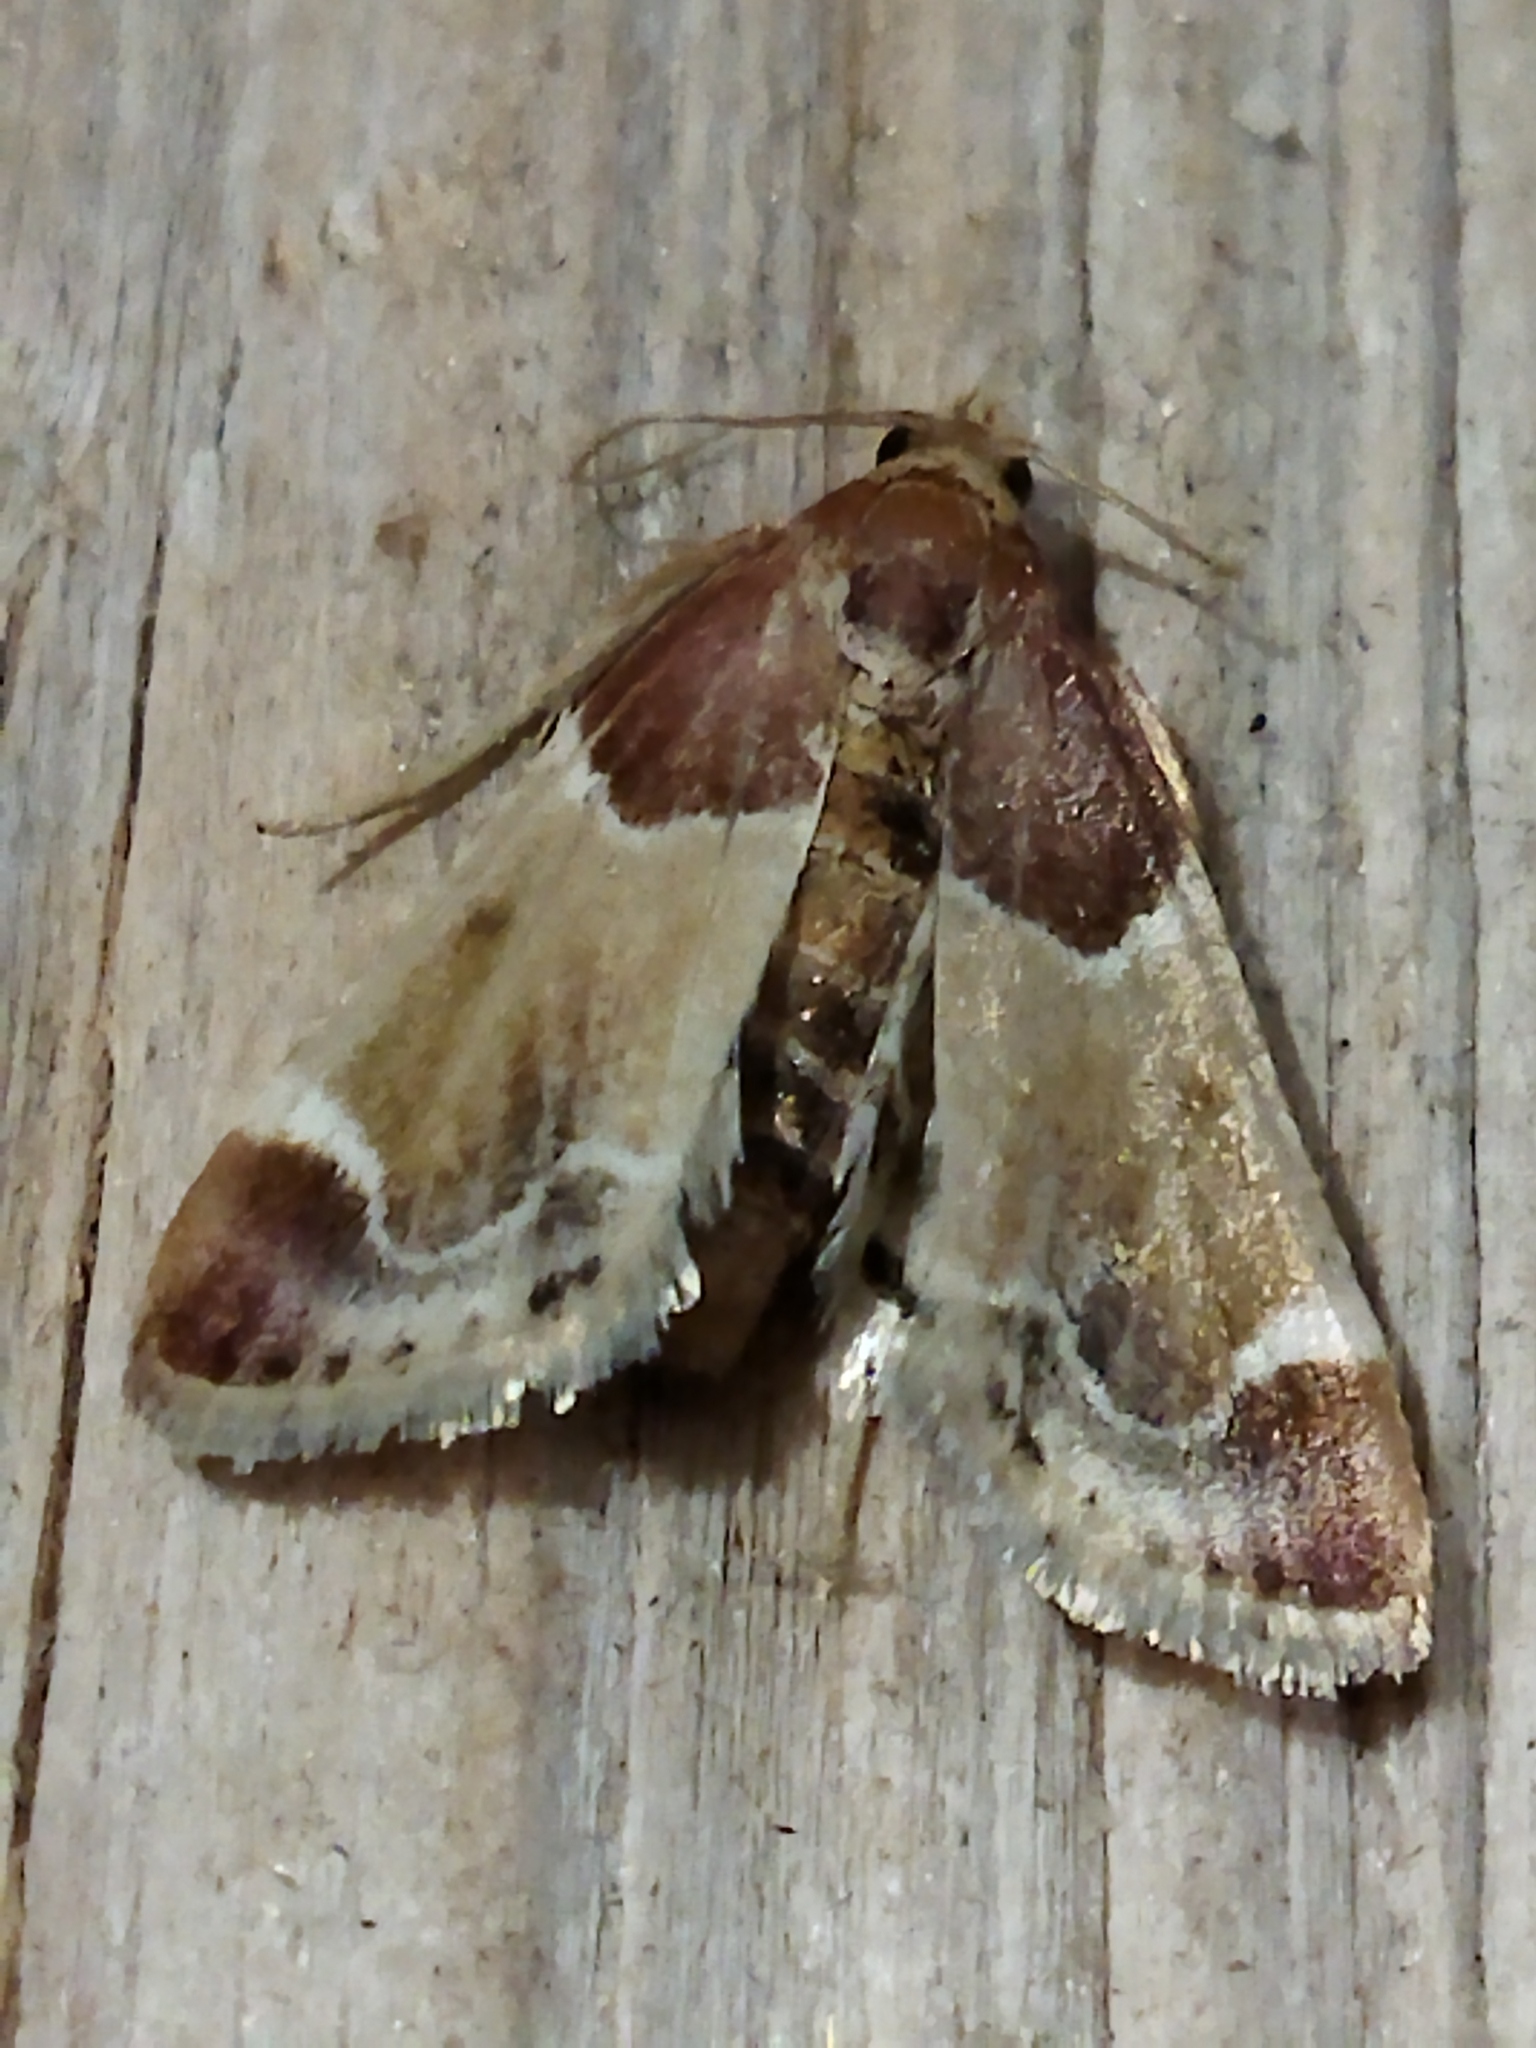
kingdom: Animalia
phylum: Arthropoda
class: Insecta
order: Lepidoptera
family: Pyralidae
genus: Pyralis
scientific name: Pyralis farinalis
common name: Meal moth
